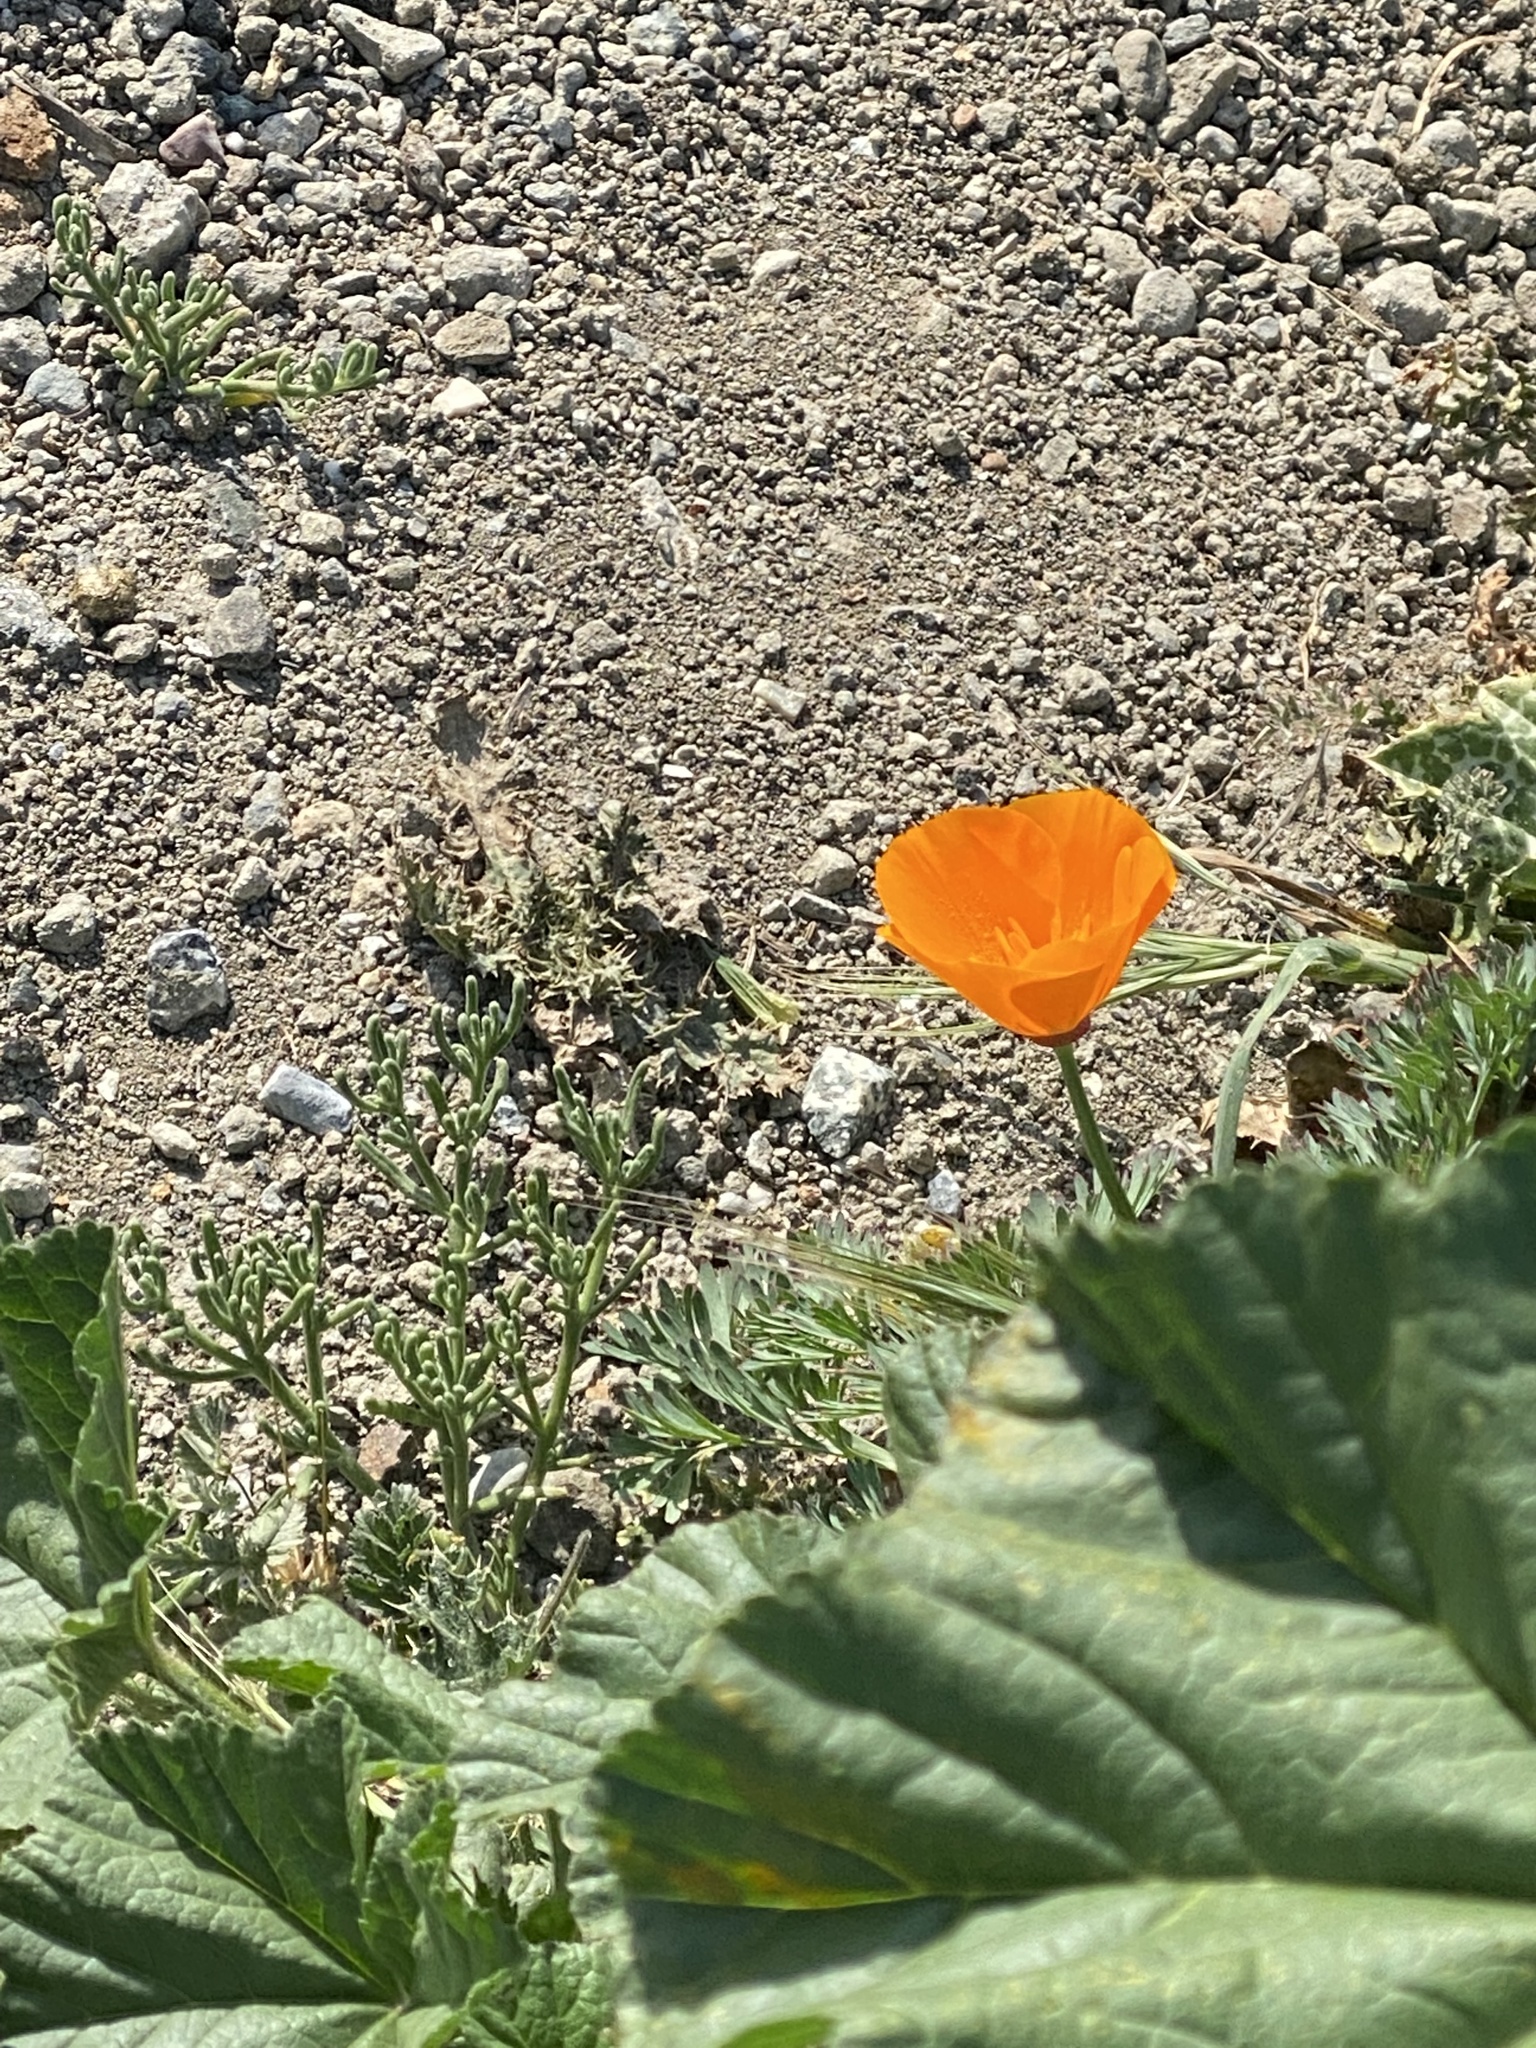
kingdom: Plantae
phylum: Tracheophyta
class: Magnoliopsida
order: Ranunculales
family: Papaveraceae
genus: Eschscholzia
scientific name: Eschscholzia californica
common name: California poppy
